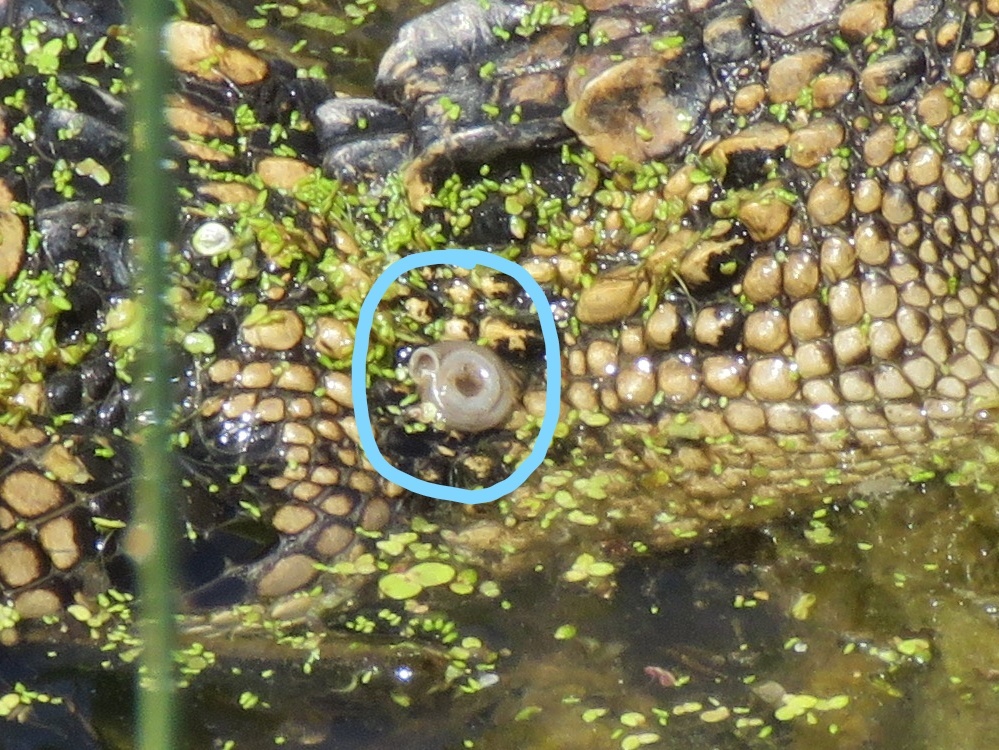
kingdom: Animalia
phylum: Mollusca
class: Gastropoda
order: Stylommatophora
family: Polygyridae
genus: Polygyra
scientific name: Polygyra cereolus
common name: Southern flatcone snail
